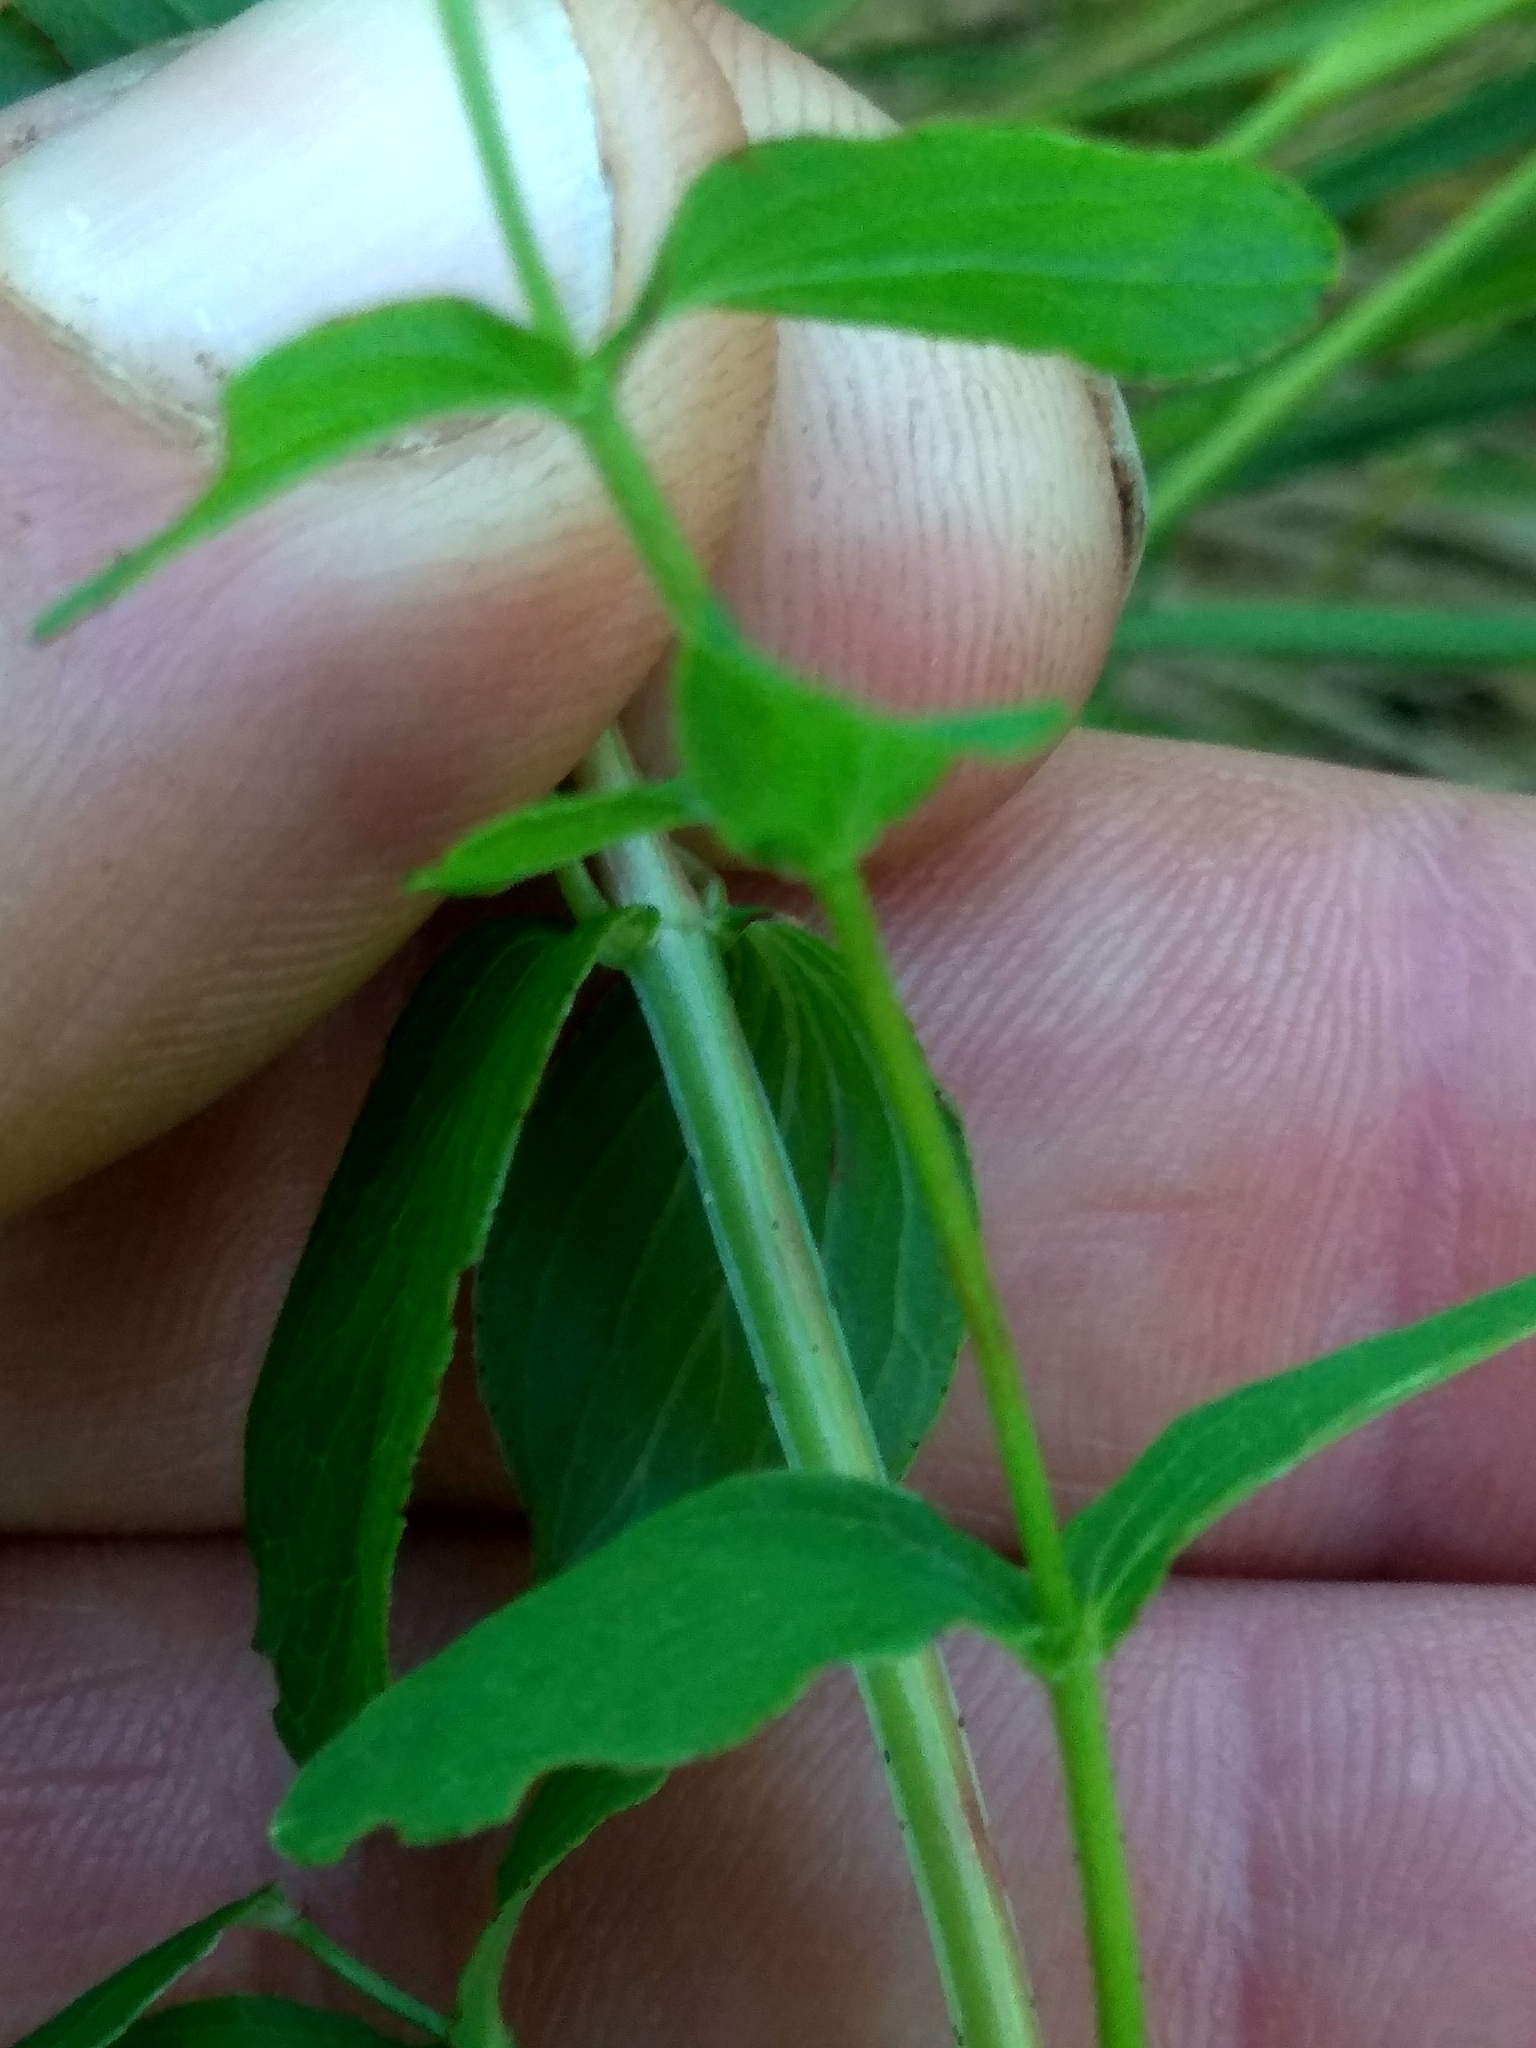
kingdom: Plantae
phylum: Tracheophyta
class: Magnoliopsida
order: Malpighiales
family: Hypericaceae
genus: Hypericum
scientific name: Hypericum maculatum
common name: Imperforate st. john's-wort
